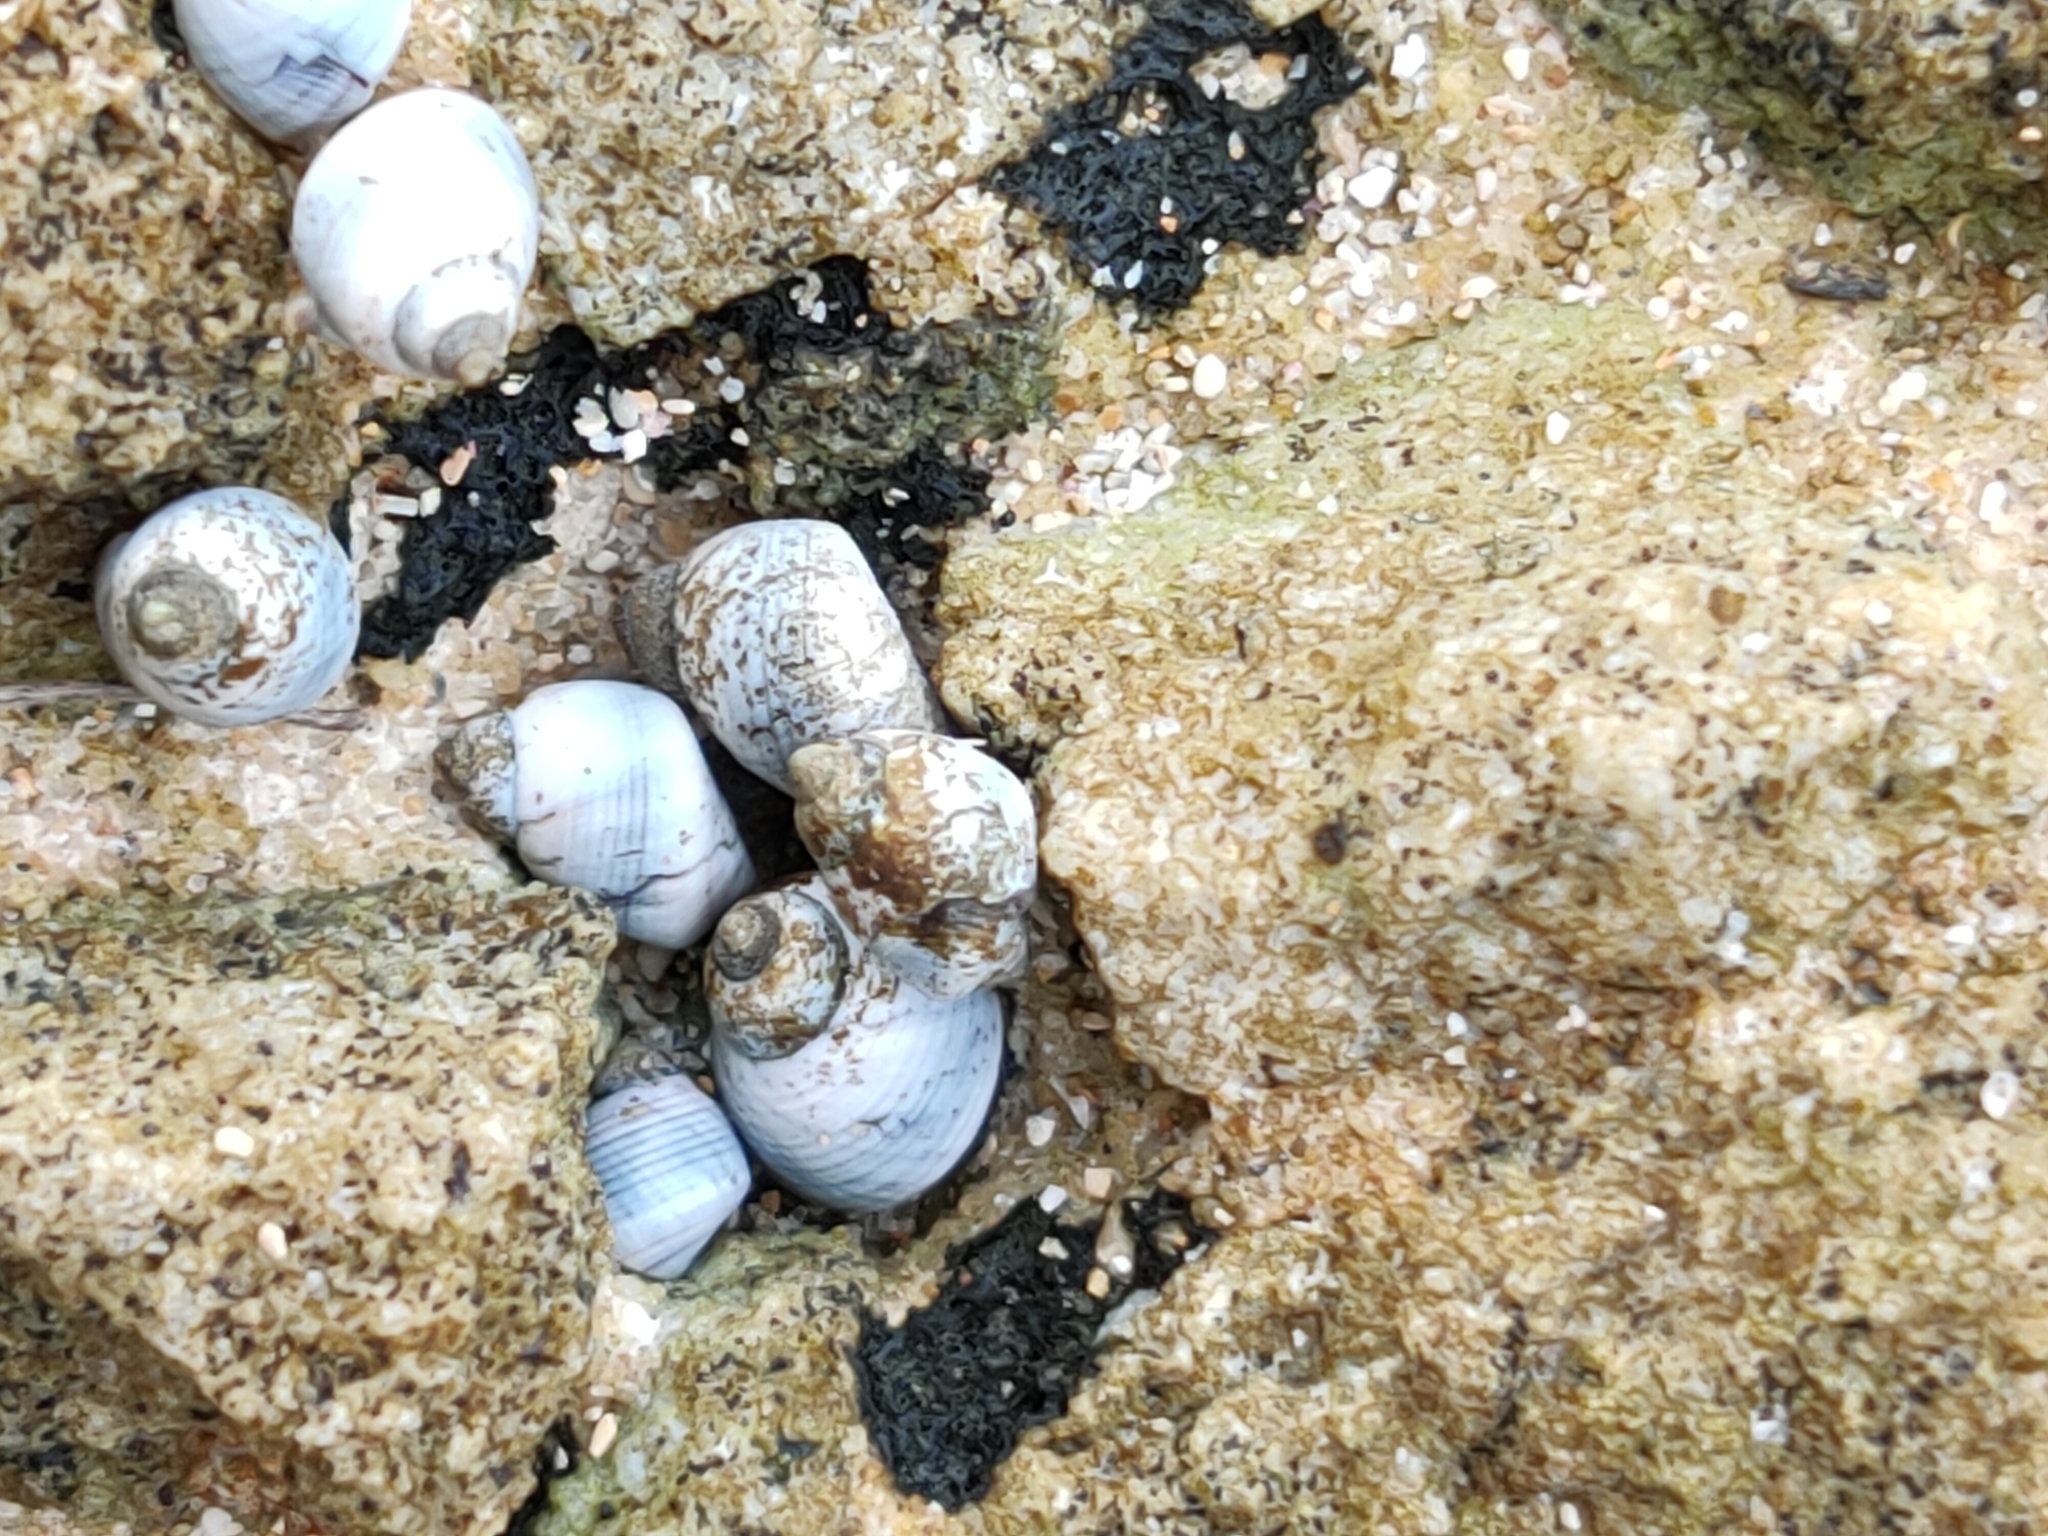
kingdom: Animalia
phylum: Mollusca
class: Gastropoda
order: Littorinimorpha
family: Littorinidae
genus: Austrolittorina
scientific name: Austrolittorina unifasciata
